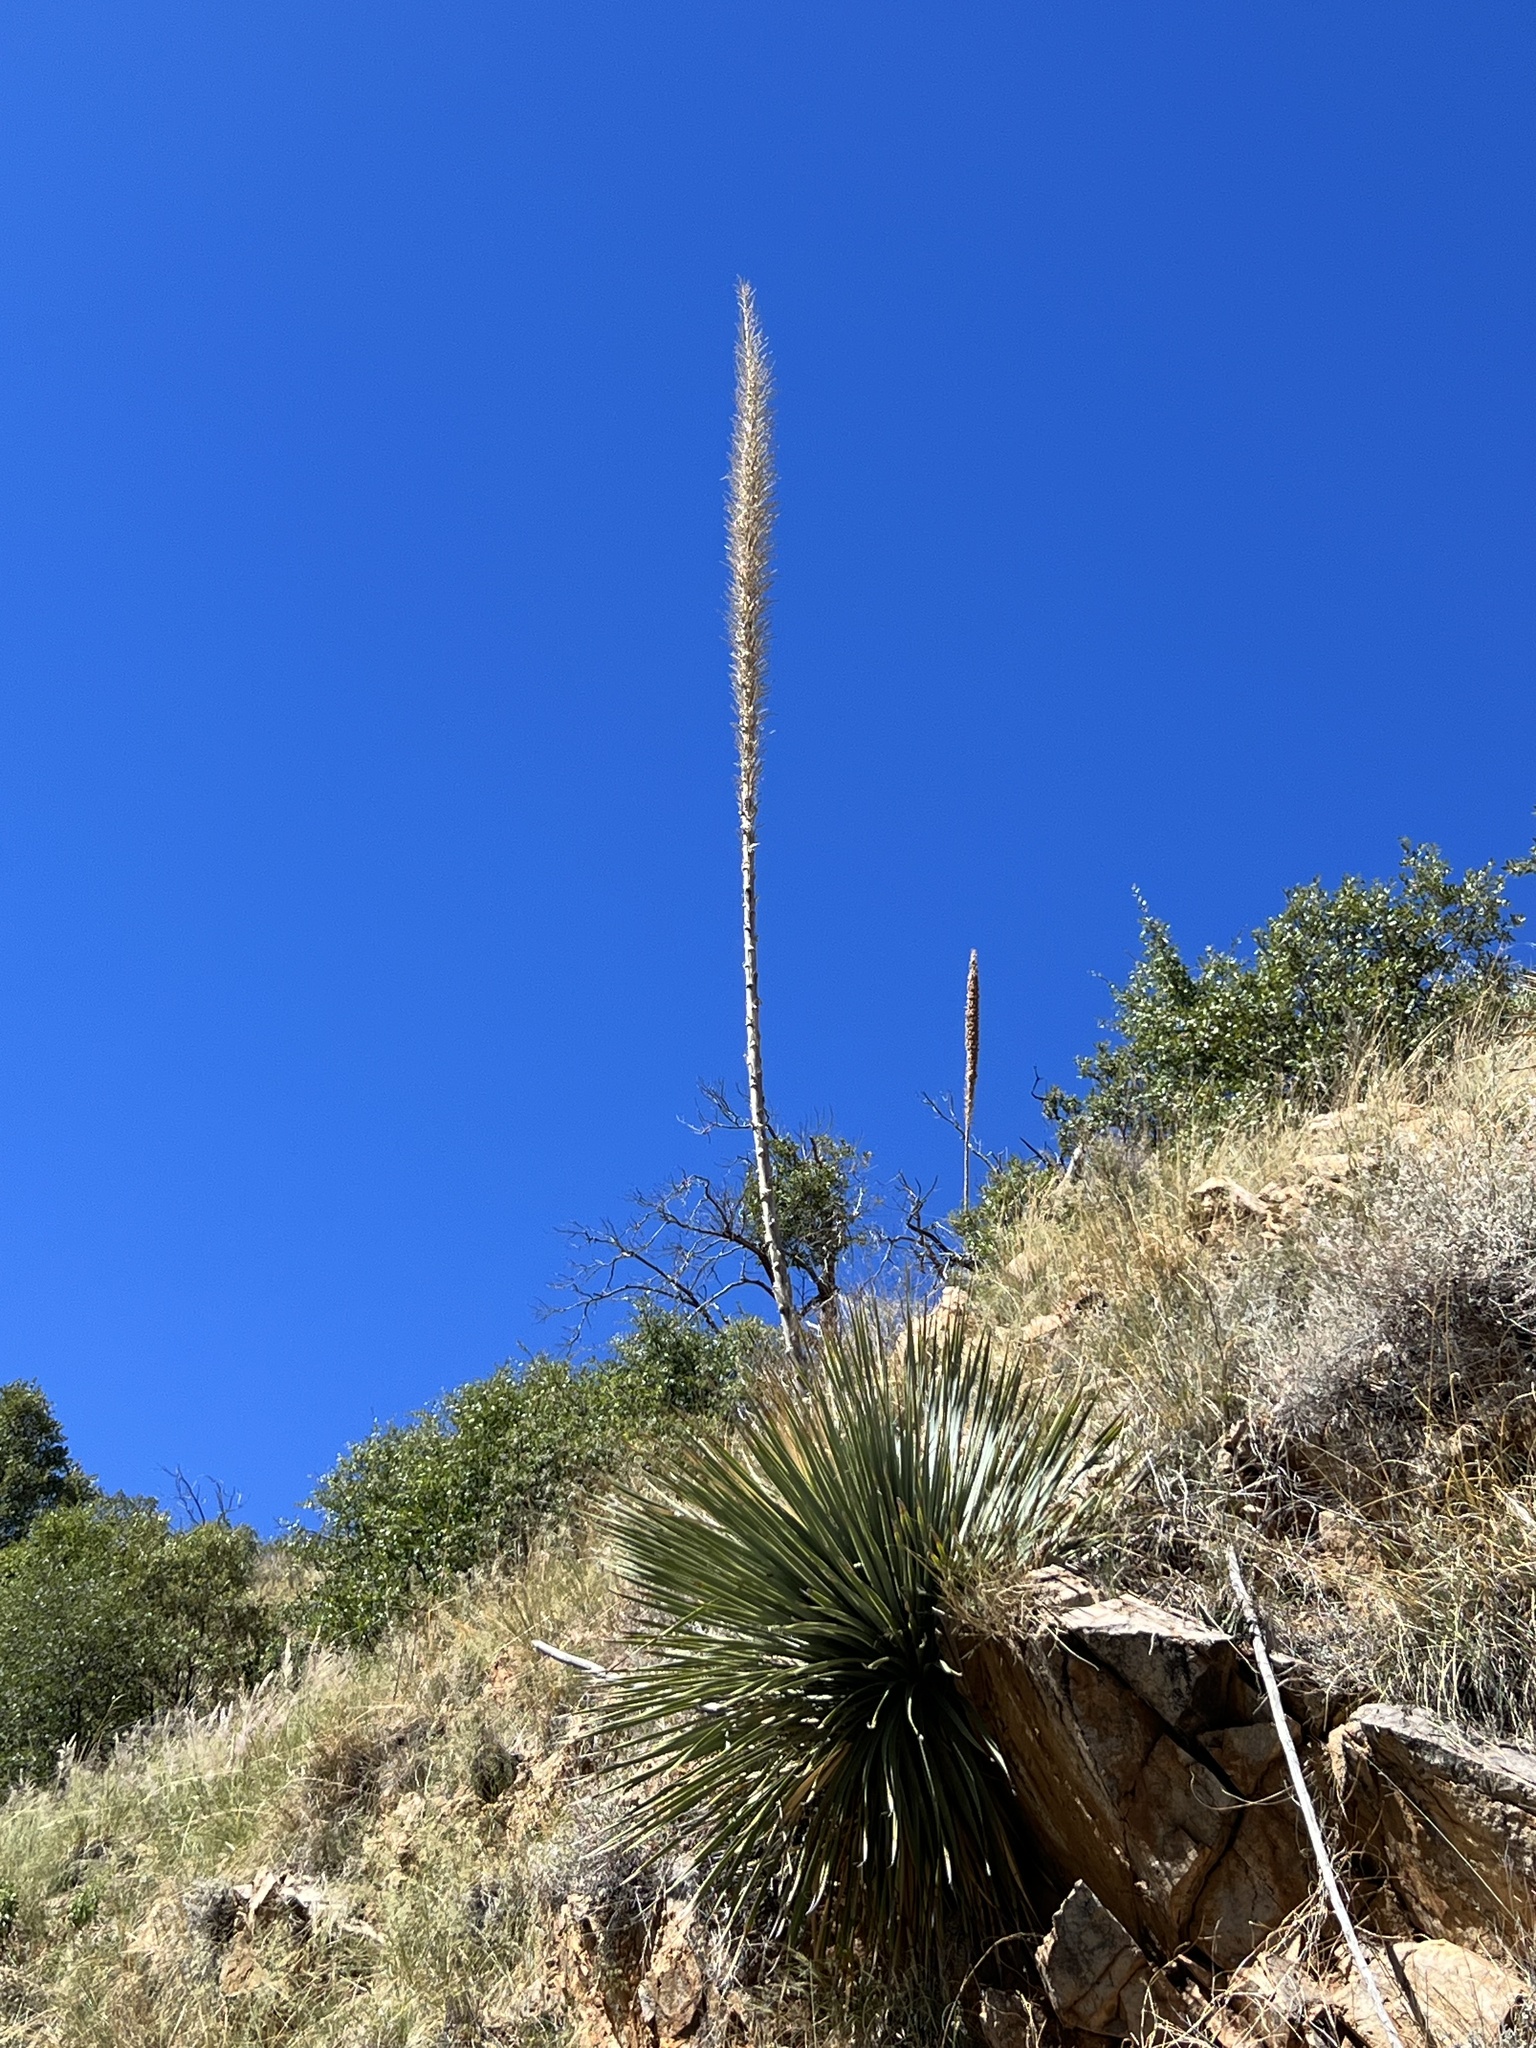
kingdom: Plantae
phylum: Tracheophyta
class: Liliopsida
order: Asparagales
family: Asparagaceae
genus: Dasylirion
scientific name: Dasylirion wheeleri
